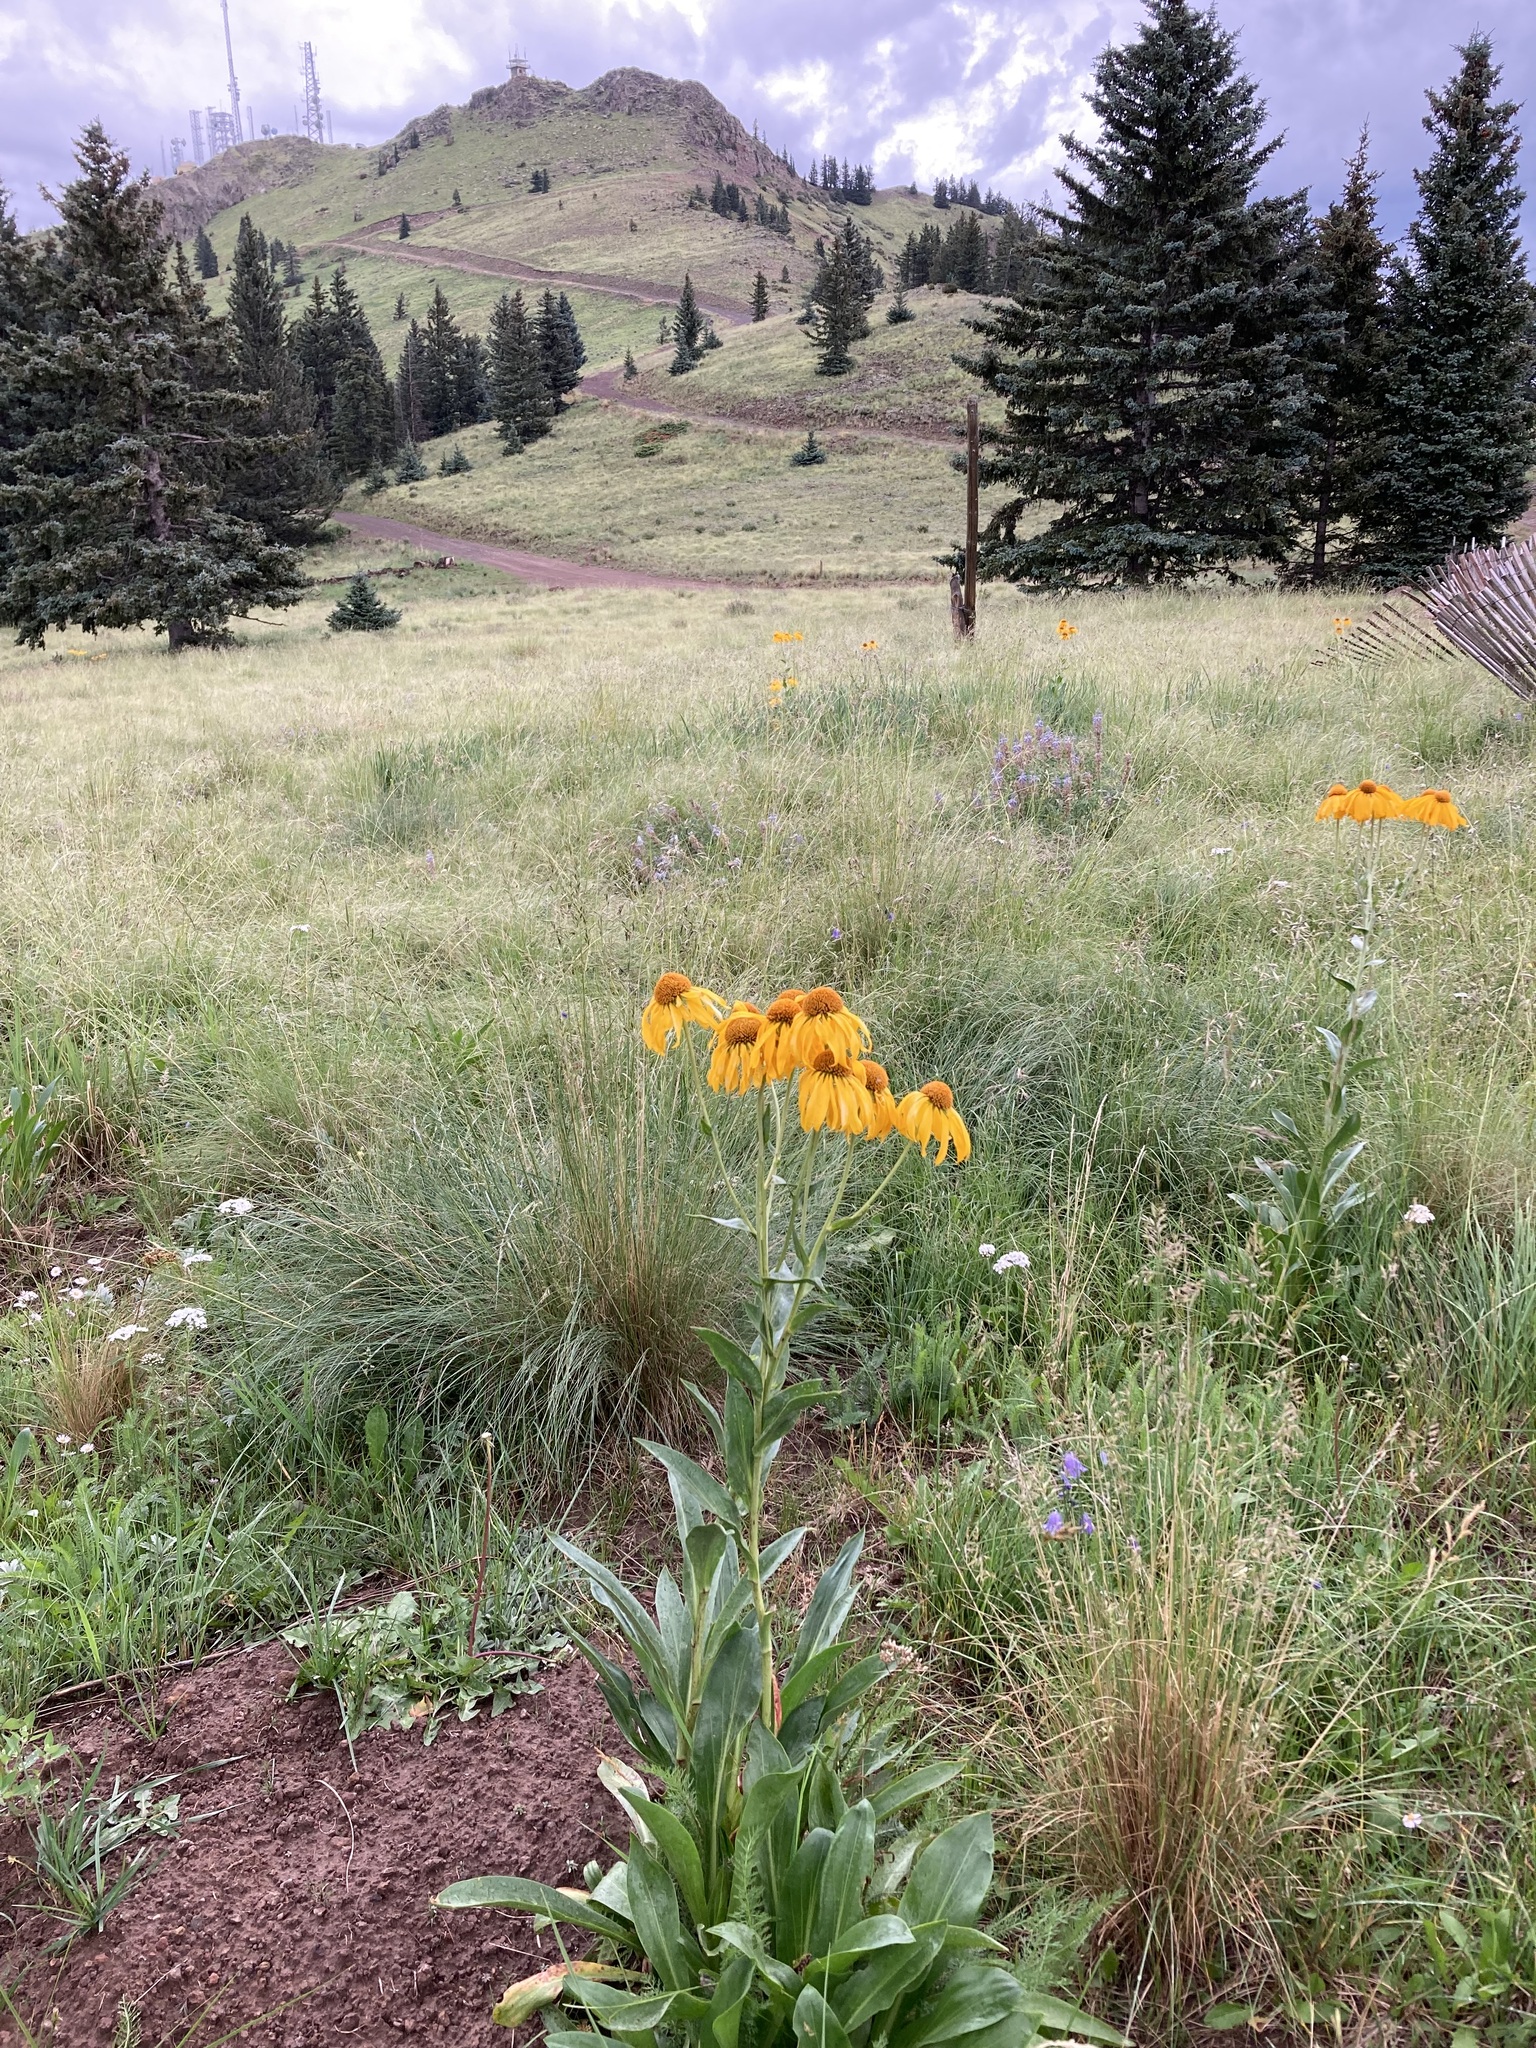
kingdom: Plantae
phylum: Tracheophyta
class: Magnoliopsida
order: Asterales
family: Asteraceae
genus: Hymenoxys
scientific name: Hymenoxys hoopesii
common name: Orange-sneezeweed
